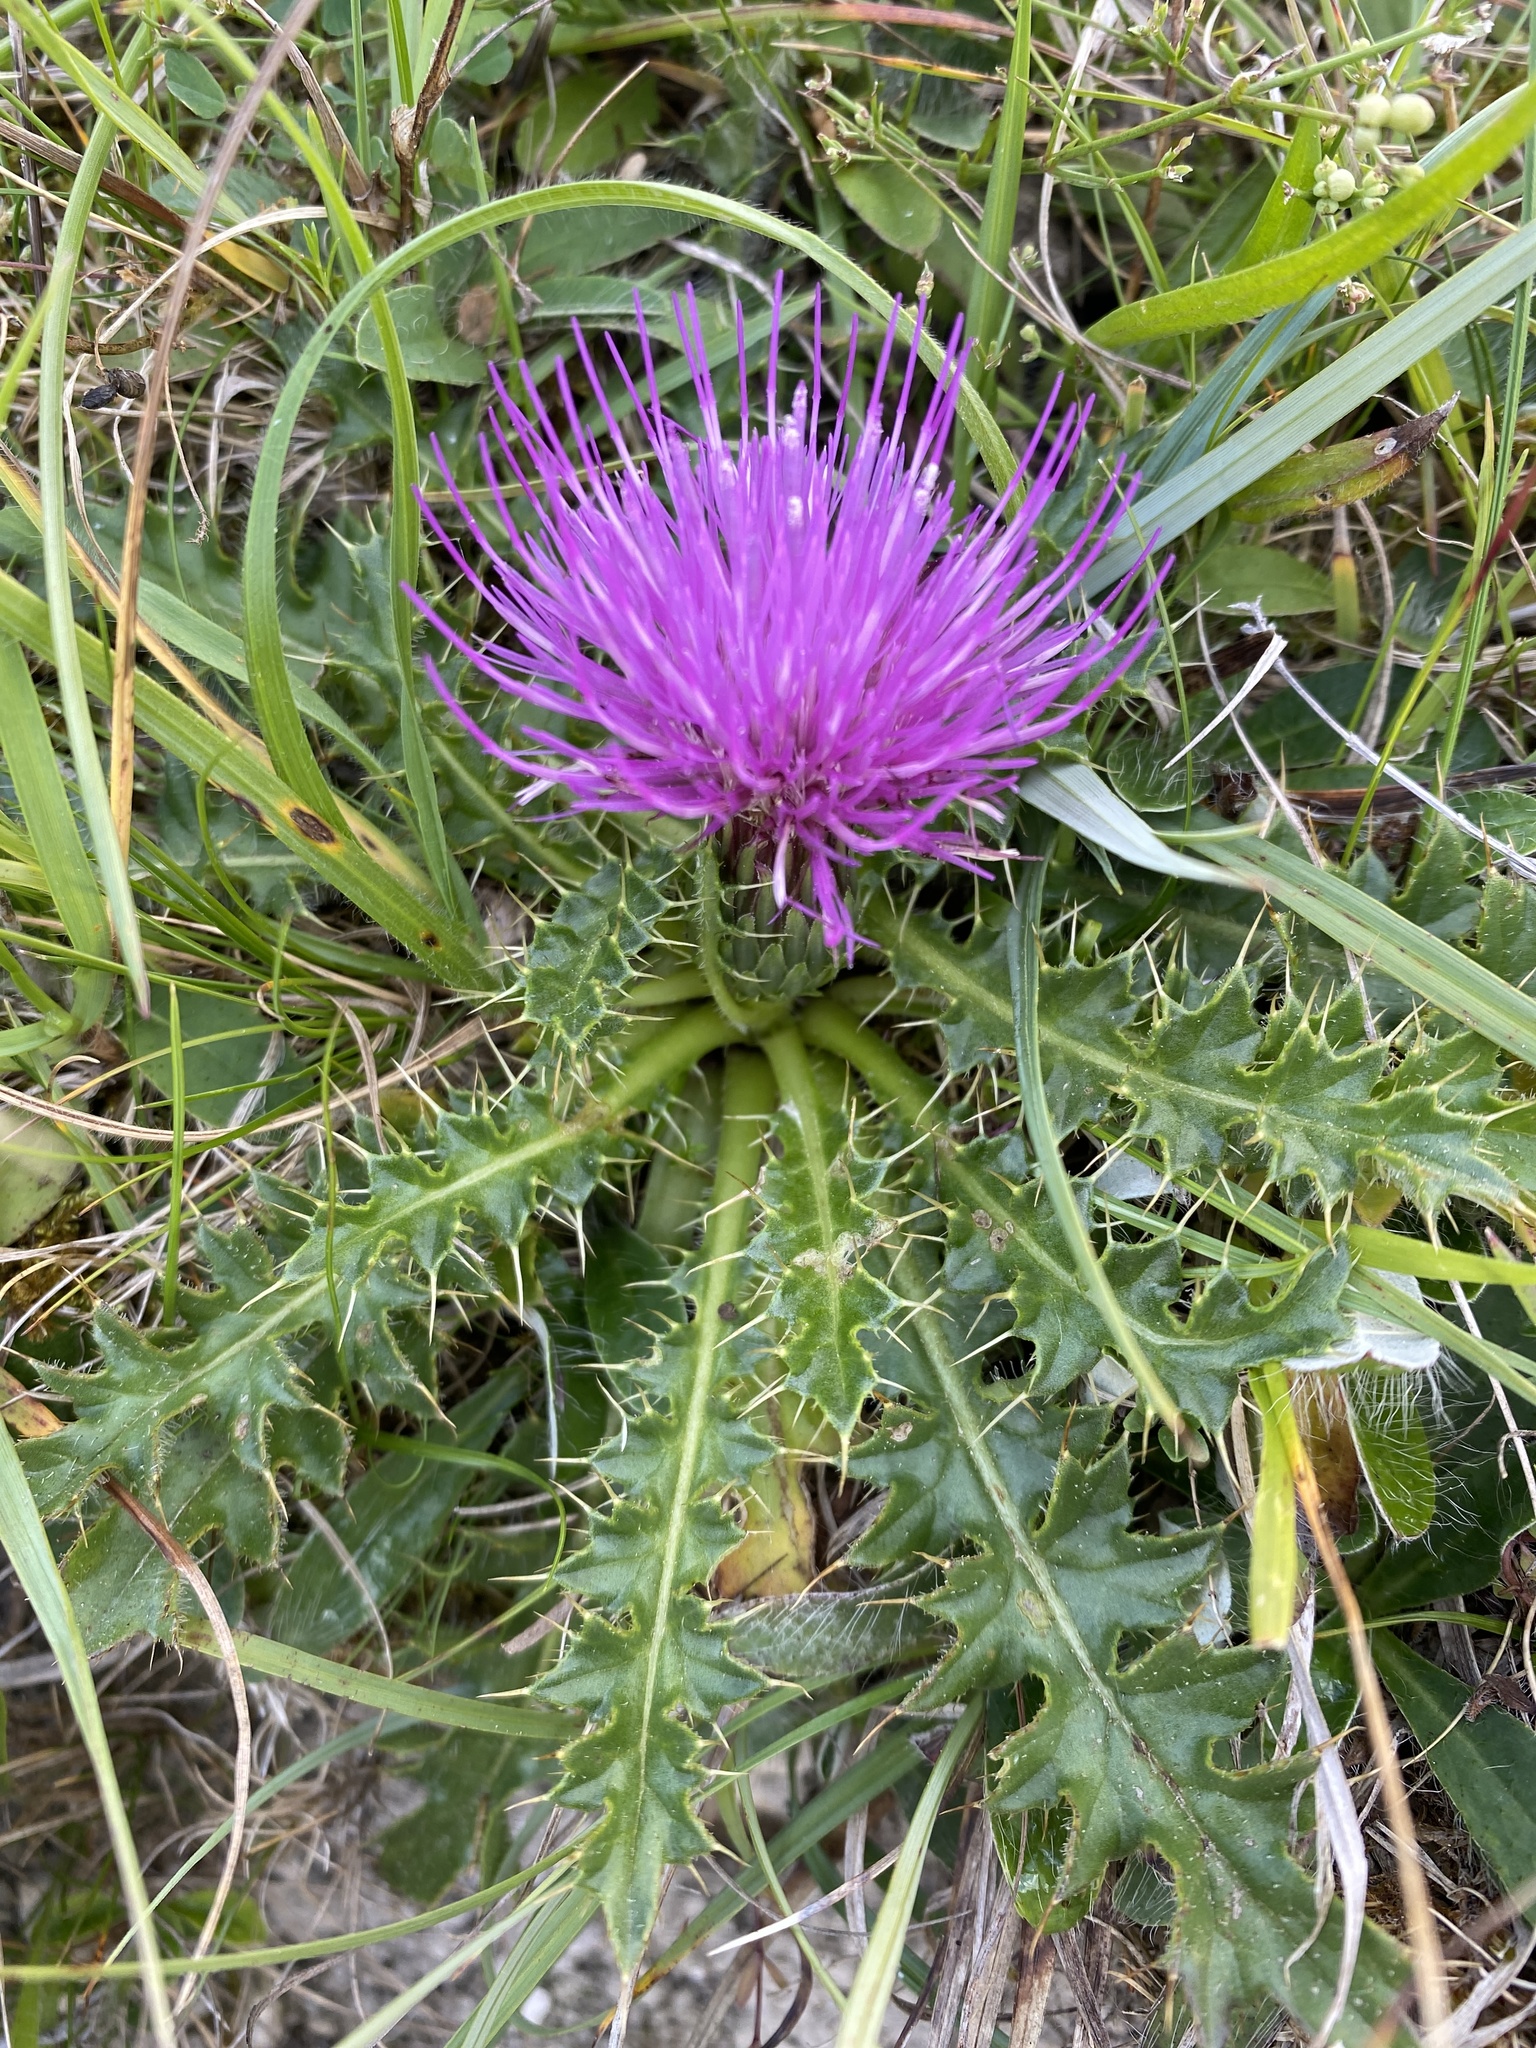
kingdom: Plantae
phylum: Tracheophyta
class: Magnoliopsida
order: Asterales
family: Asteraceae
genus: Cirsium
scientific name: Cirsium acaulon
